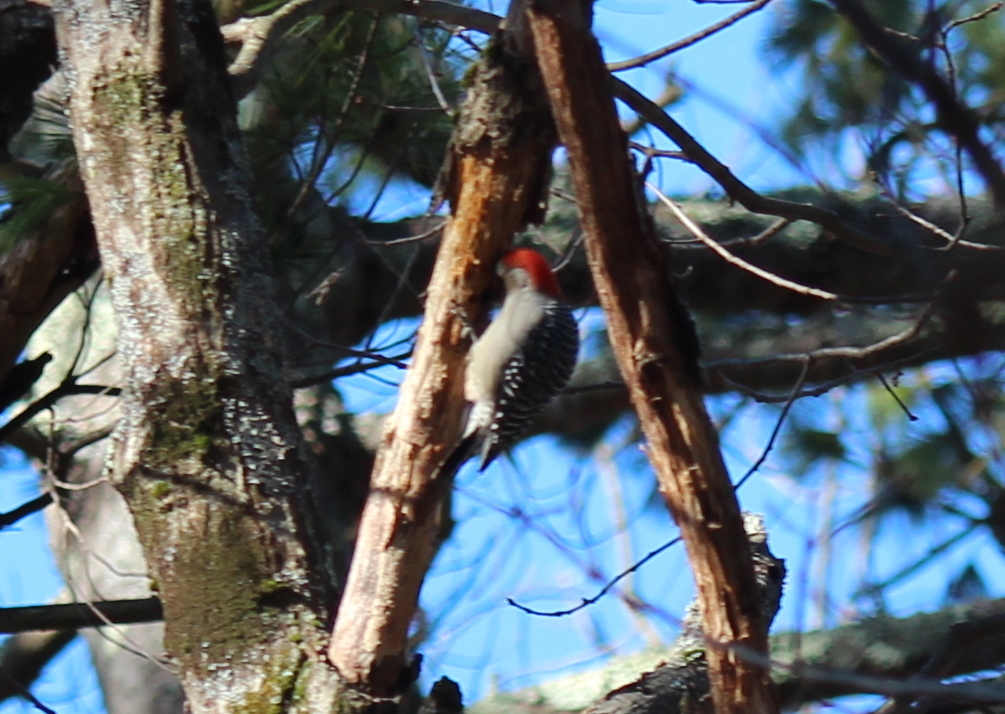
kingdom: Animalia
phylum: Chordata
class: Aves
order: Piciformes
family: Picidae
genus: Melanerpes
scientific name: Melanerpes carolinus
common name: Red-bellied woodpecker
